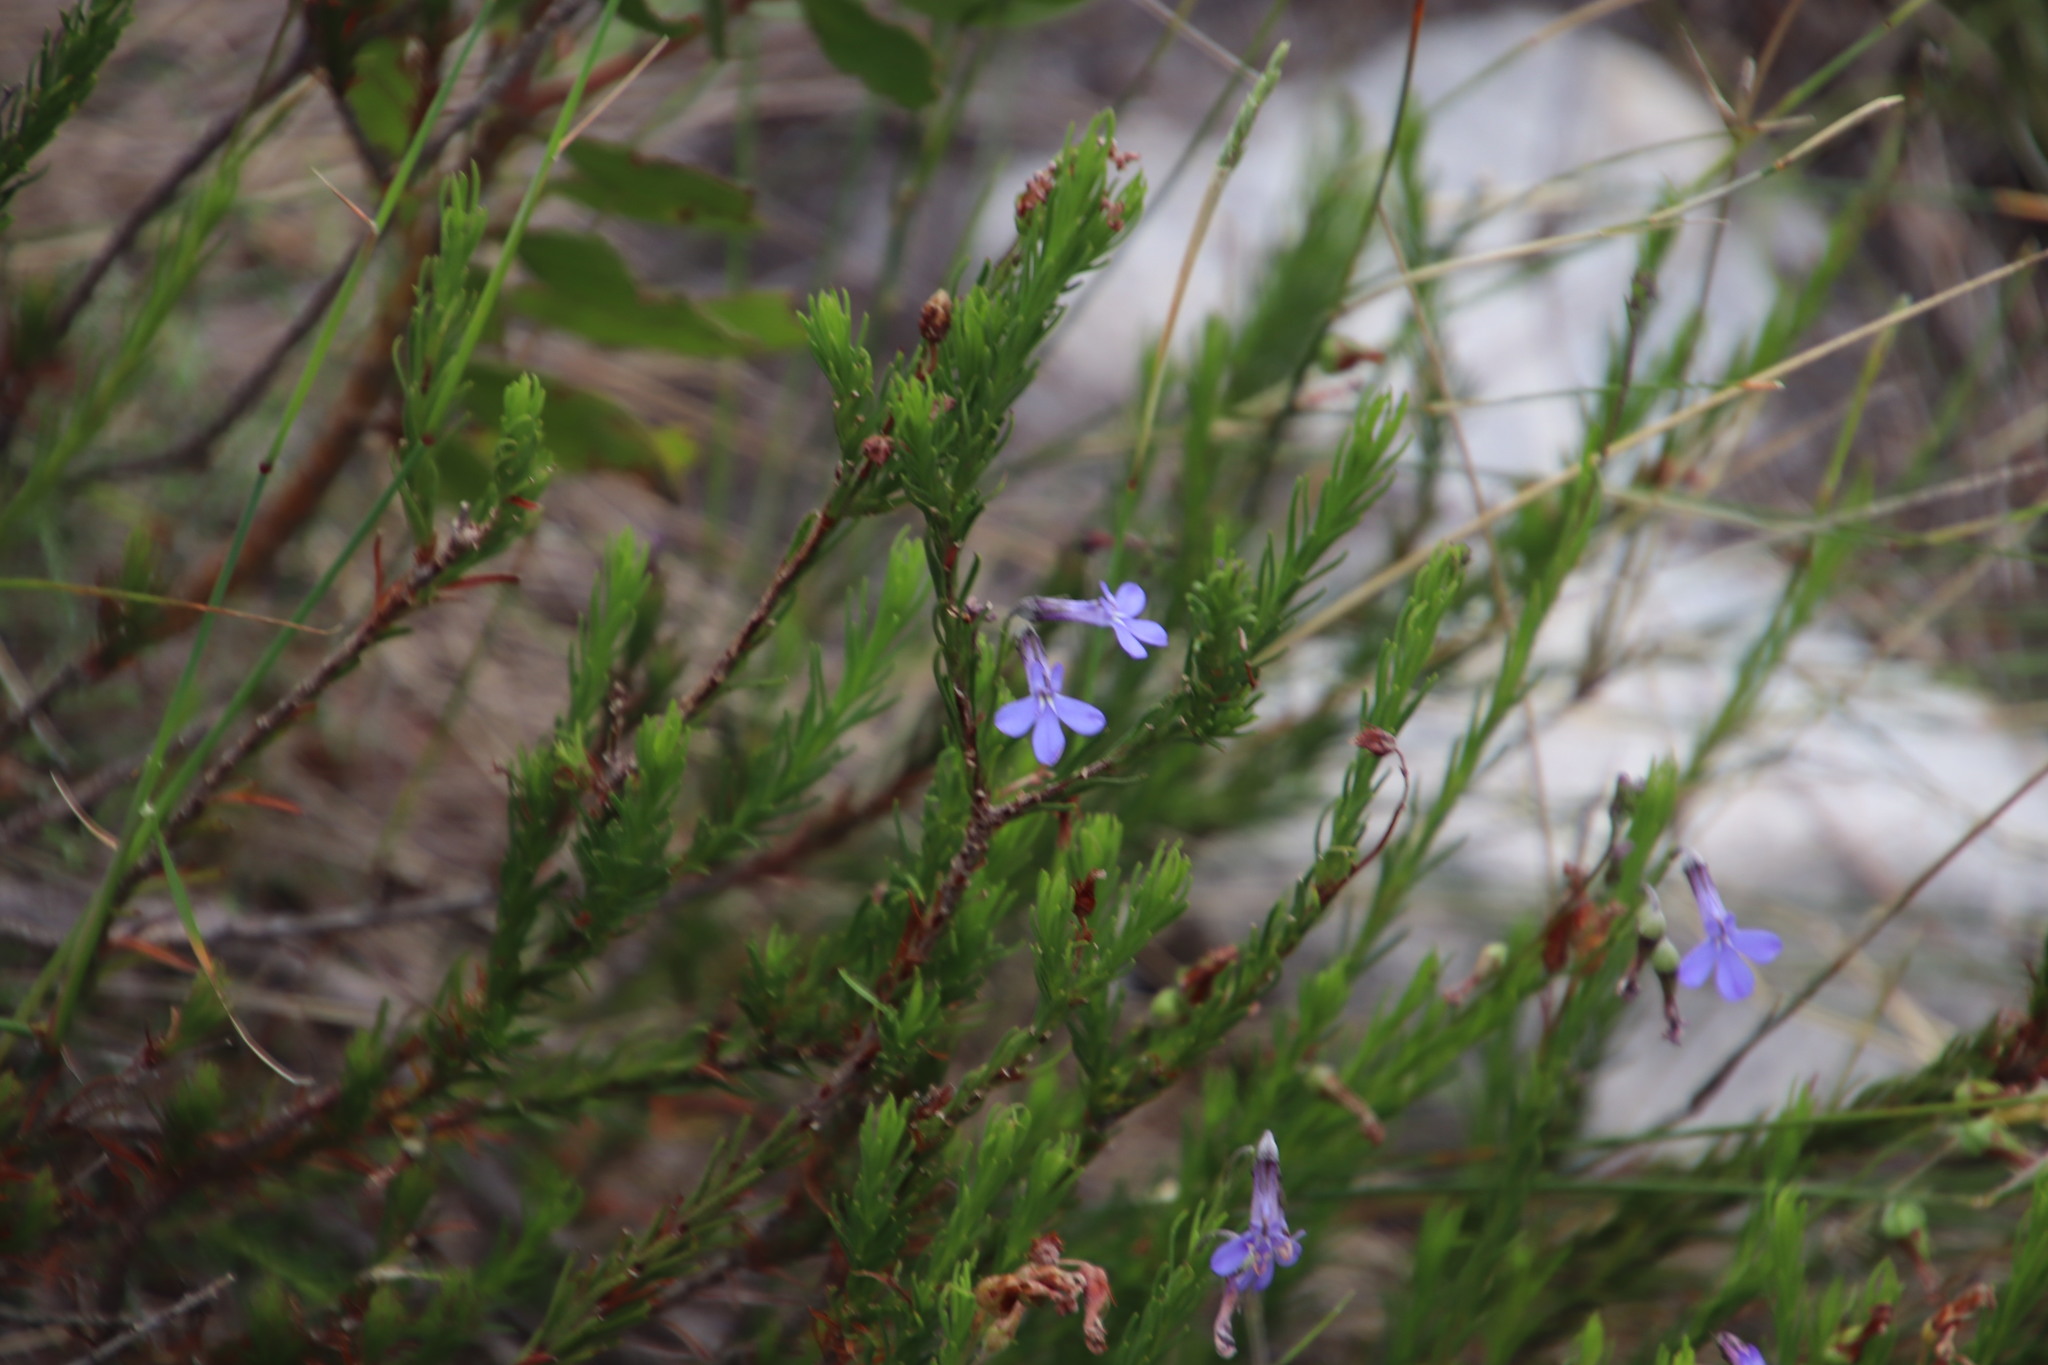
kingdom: Plantae
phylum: Tracheophyta
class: Magnoliopsida
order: Asterales
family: Campanulaceae
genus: Lobelia
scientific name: Lobelia pinifolia
